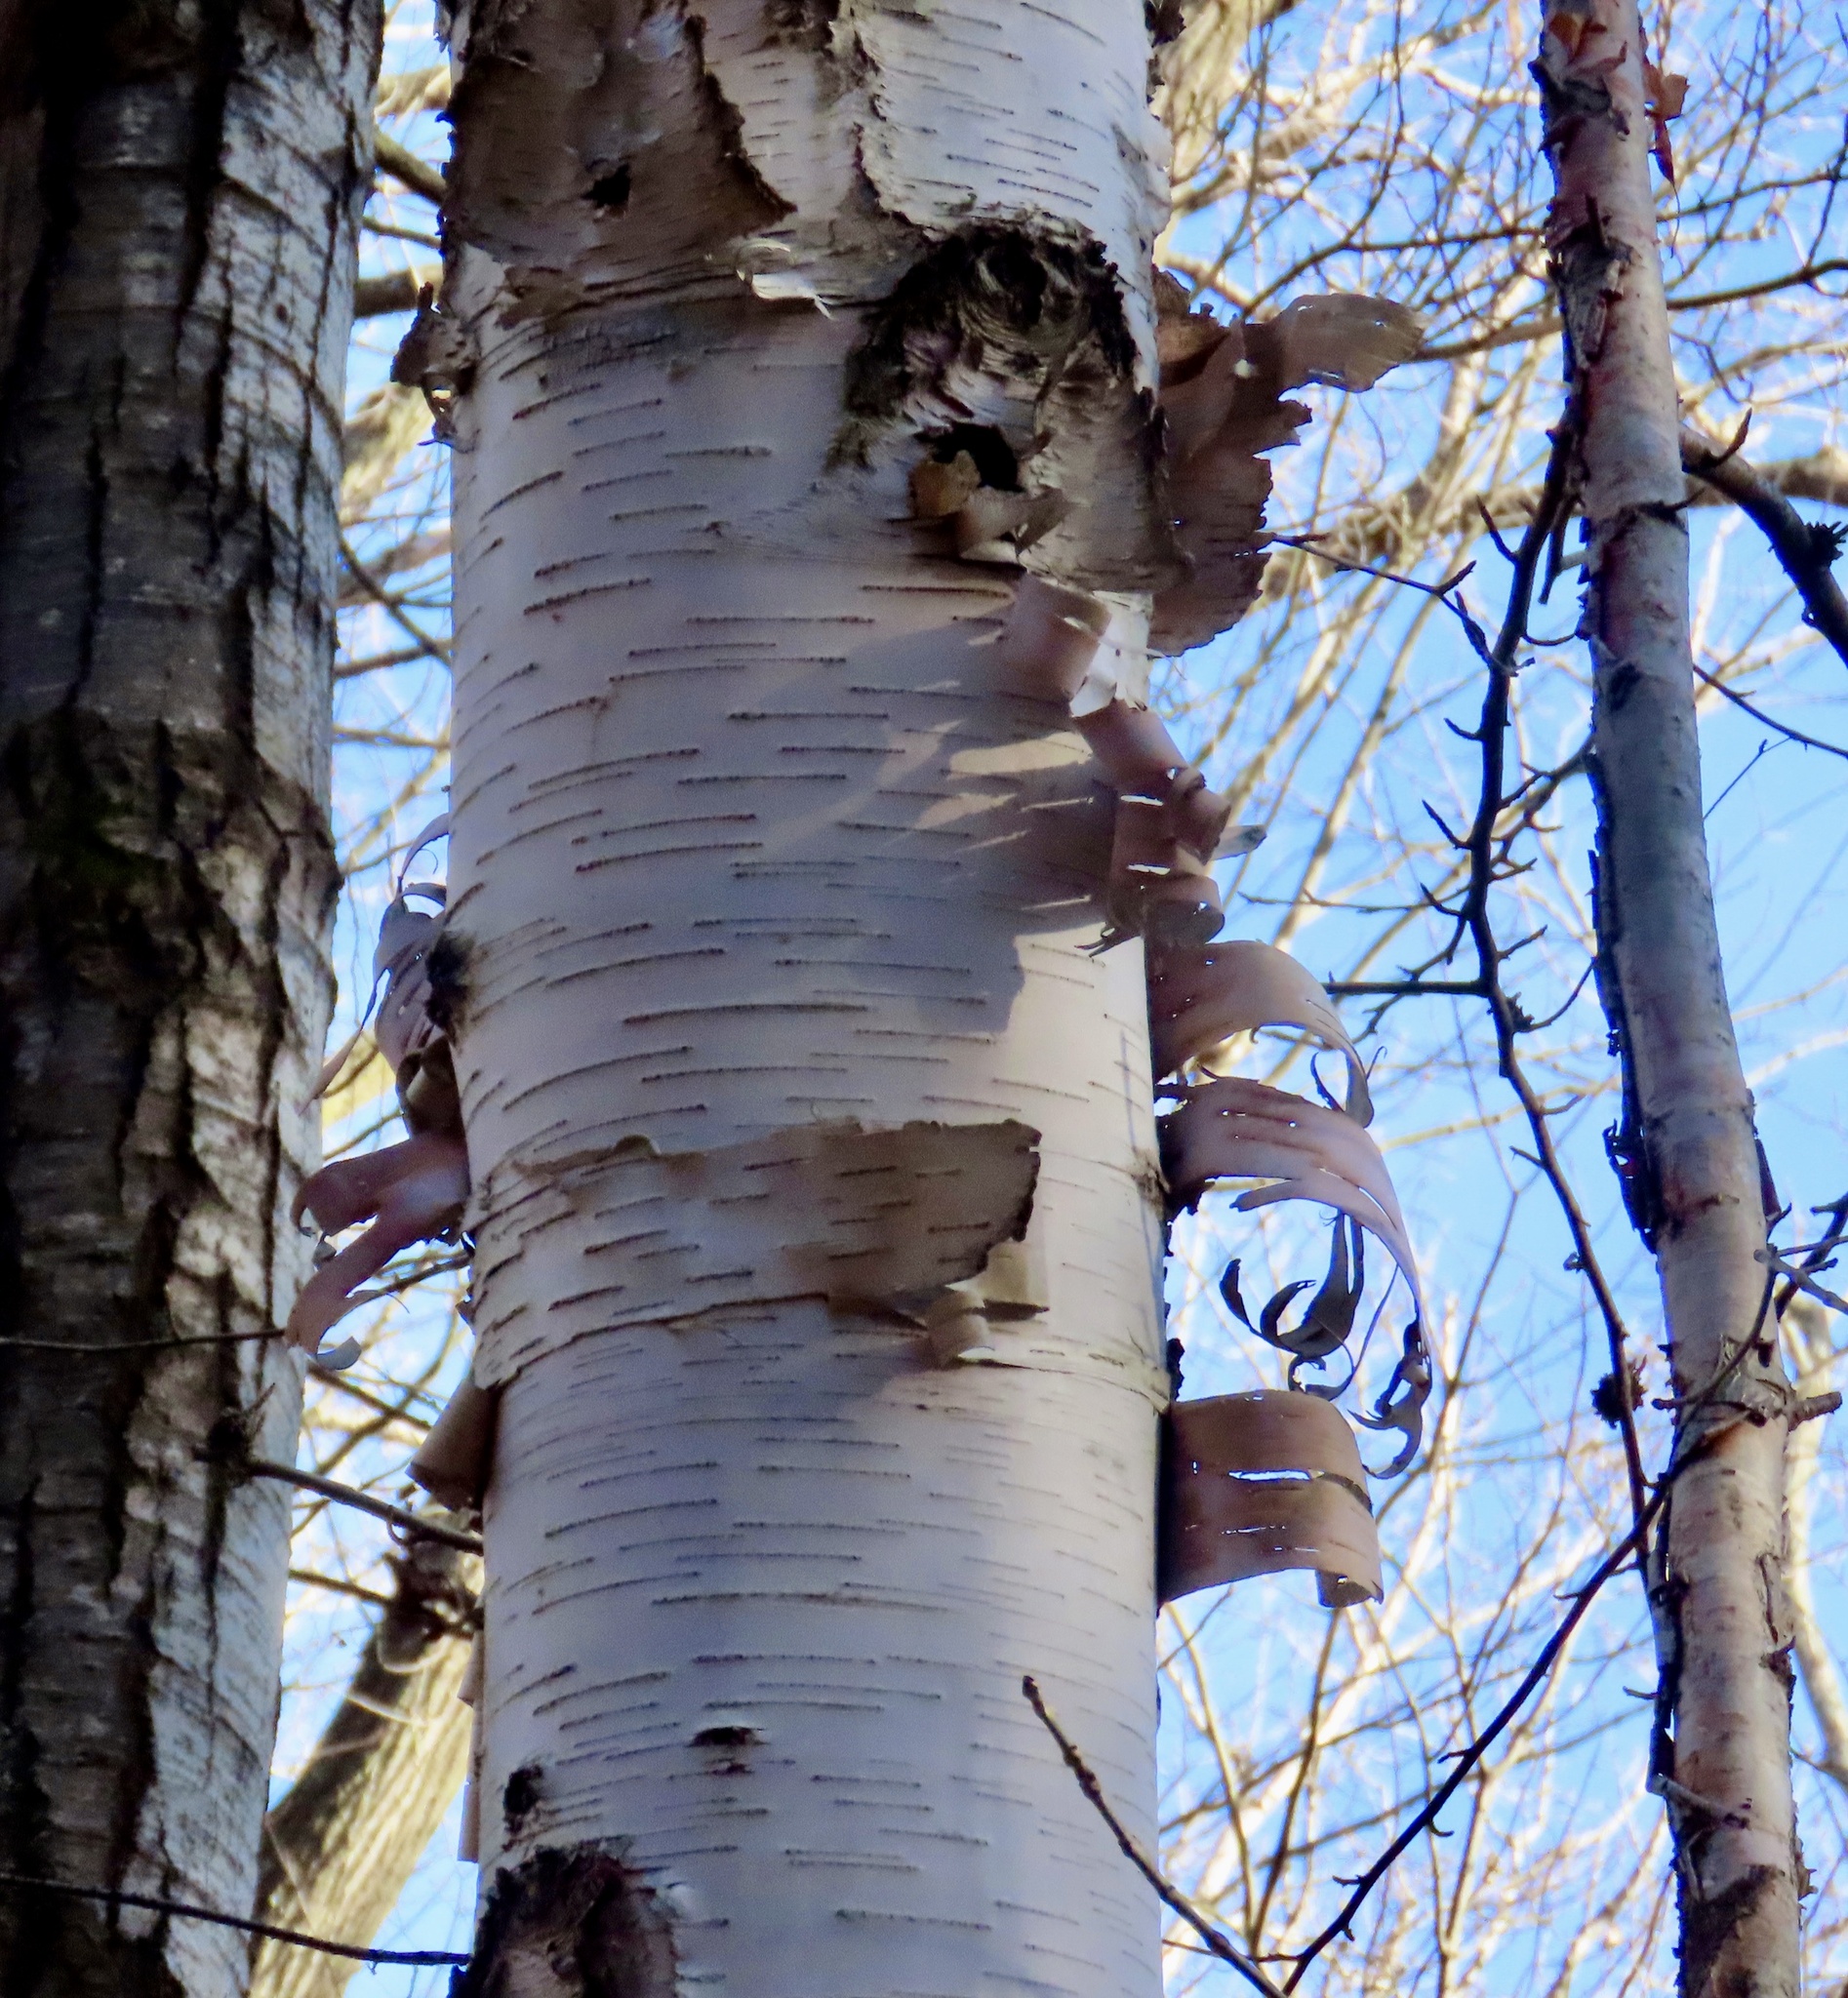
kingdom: Plantae
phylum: Tracheophyta
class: Magnoliopsida
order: Fagales
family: Betulaceae
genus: Betula
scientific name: Betula papyrifera
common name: Paper birch
